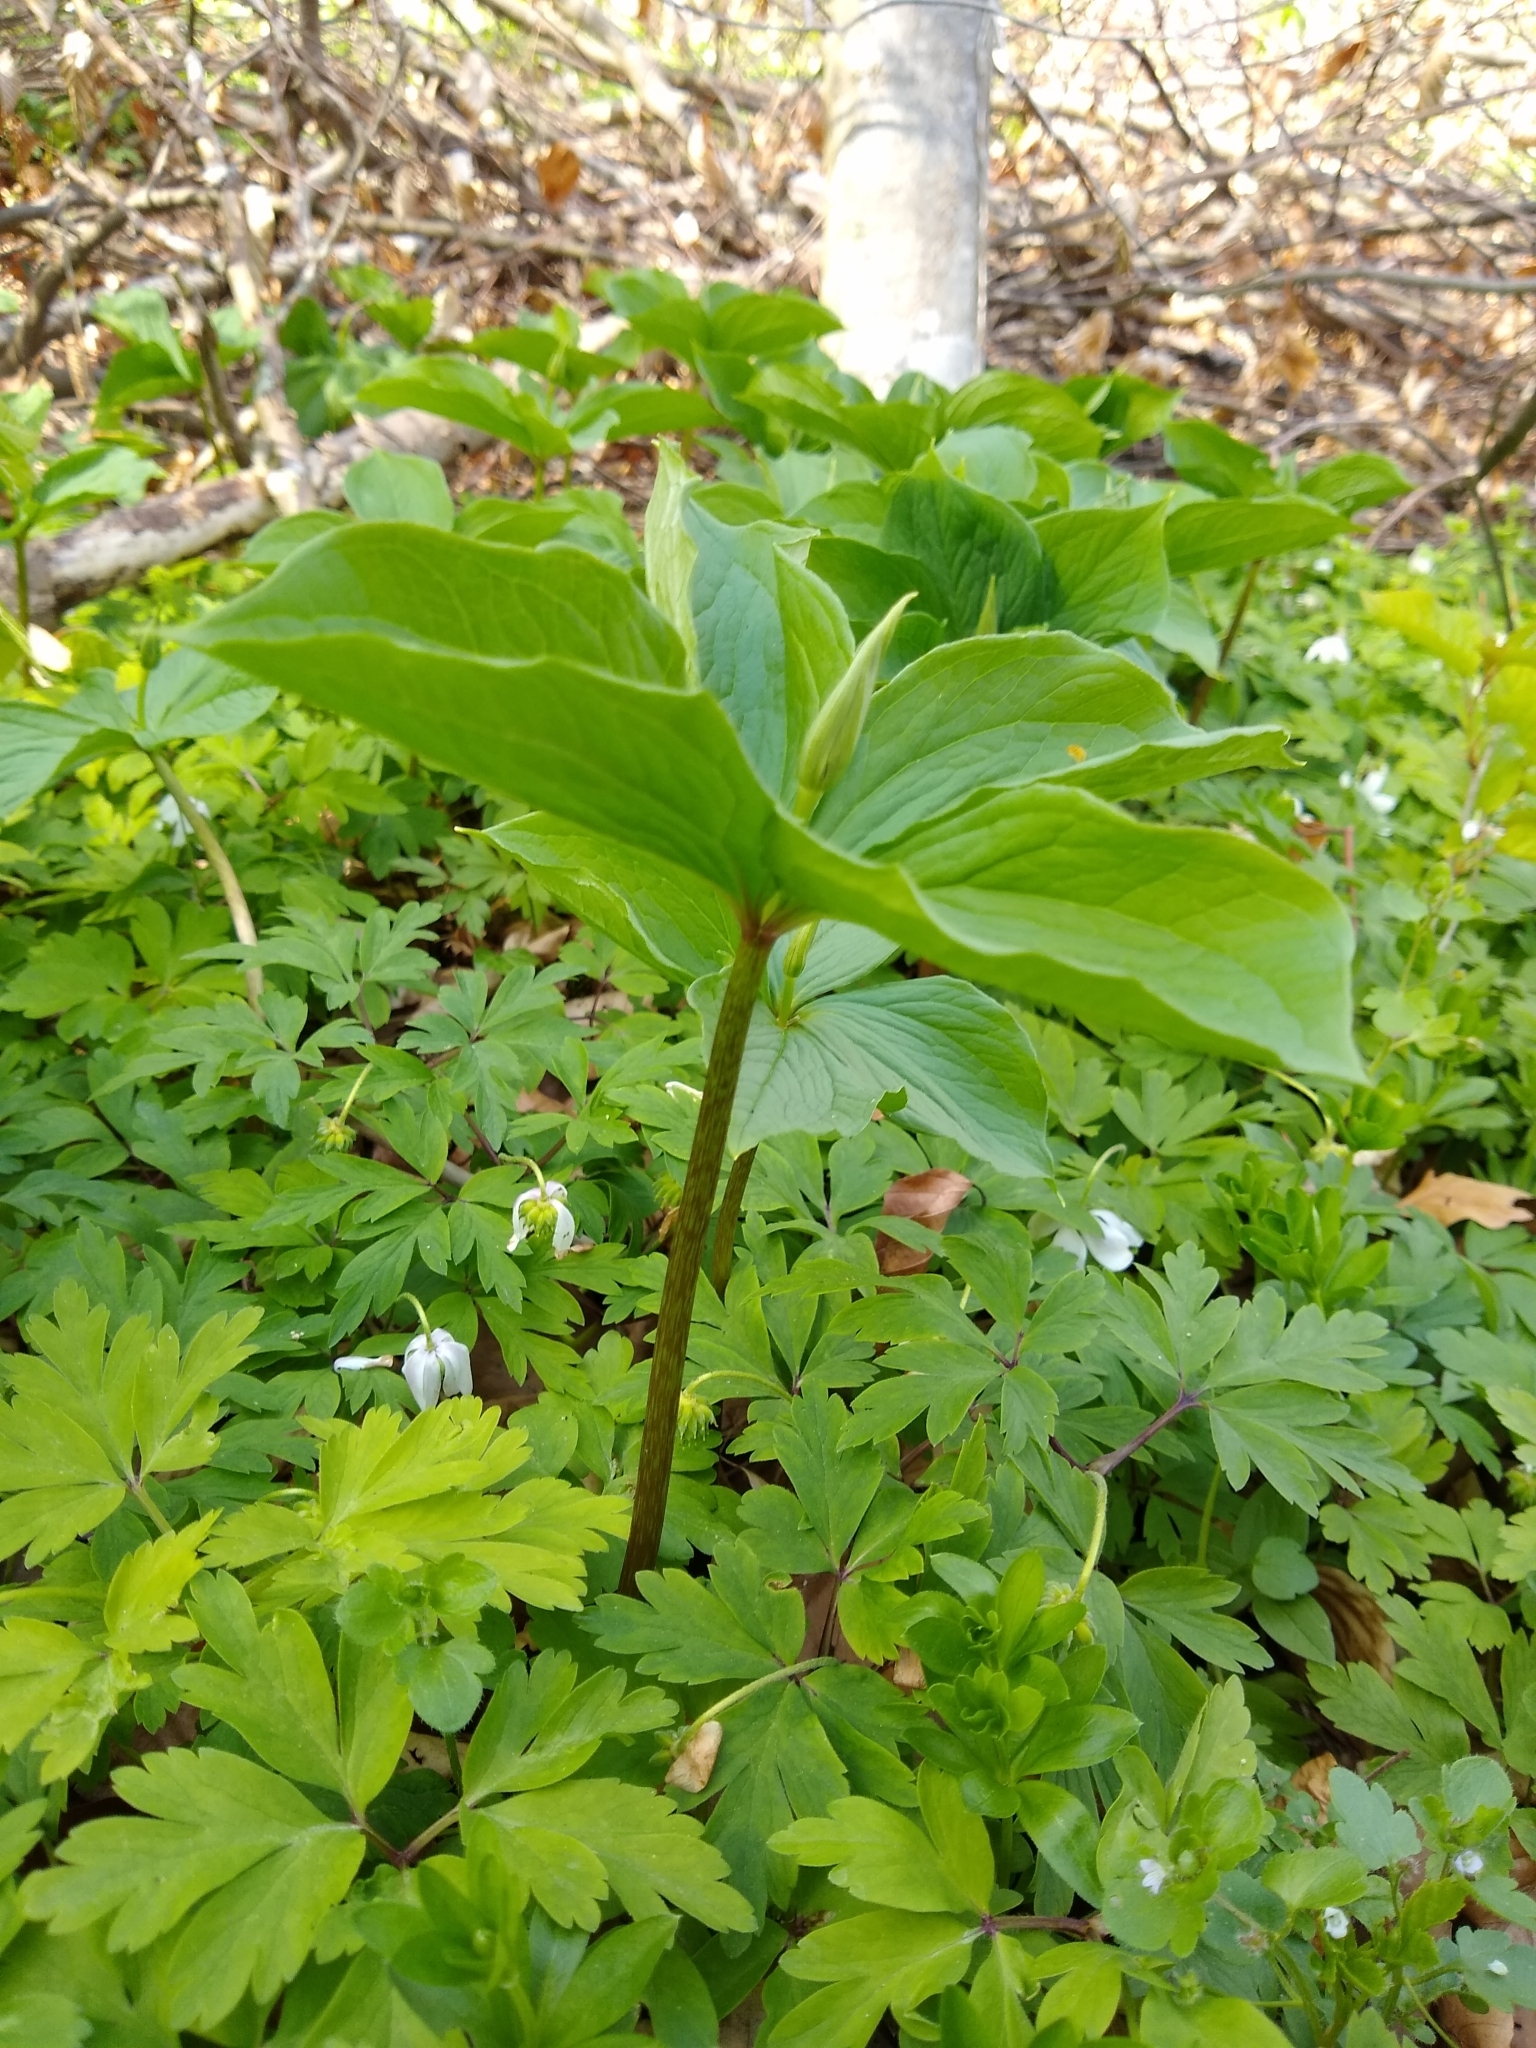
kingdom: Plantae
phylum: Tracheophyta
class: Liliopsida
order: Liliales
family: Melanthiaceae
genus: Paris
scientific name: Paris quadrifolia
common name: Herb-paris
